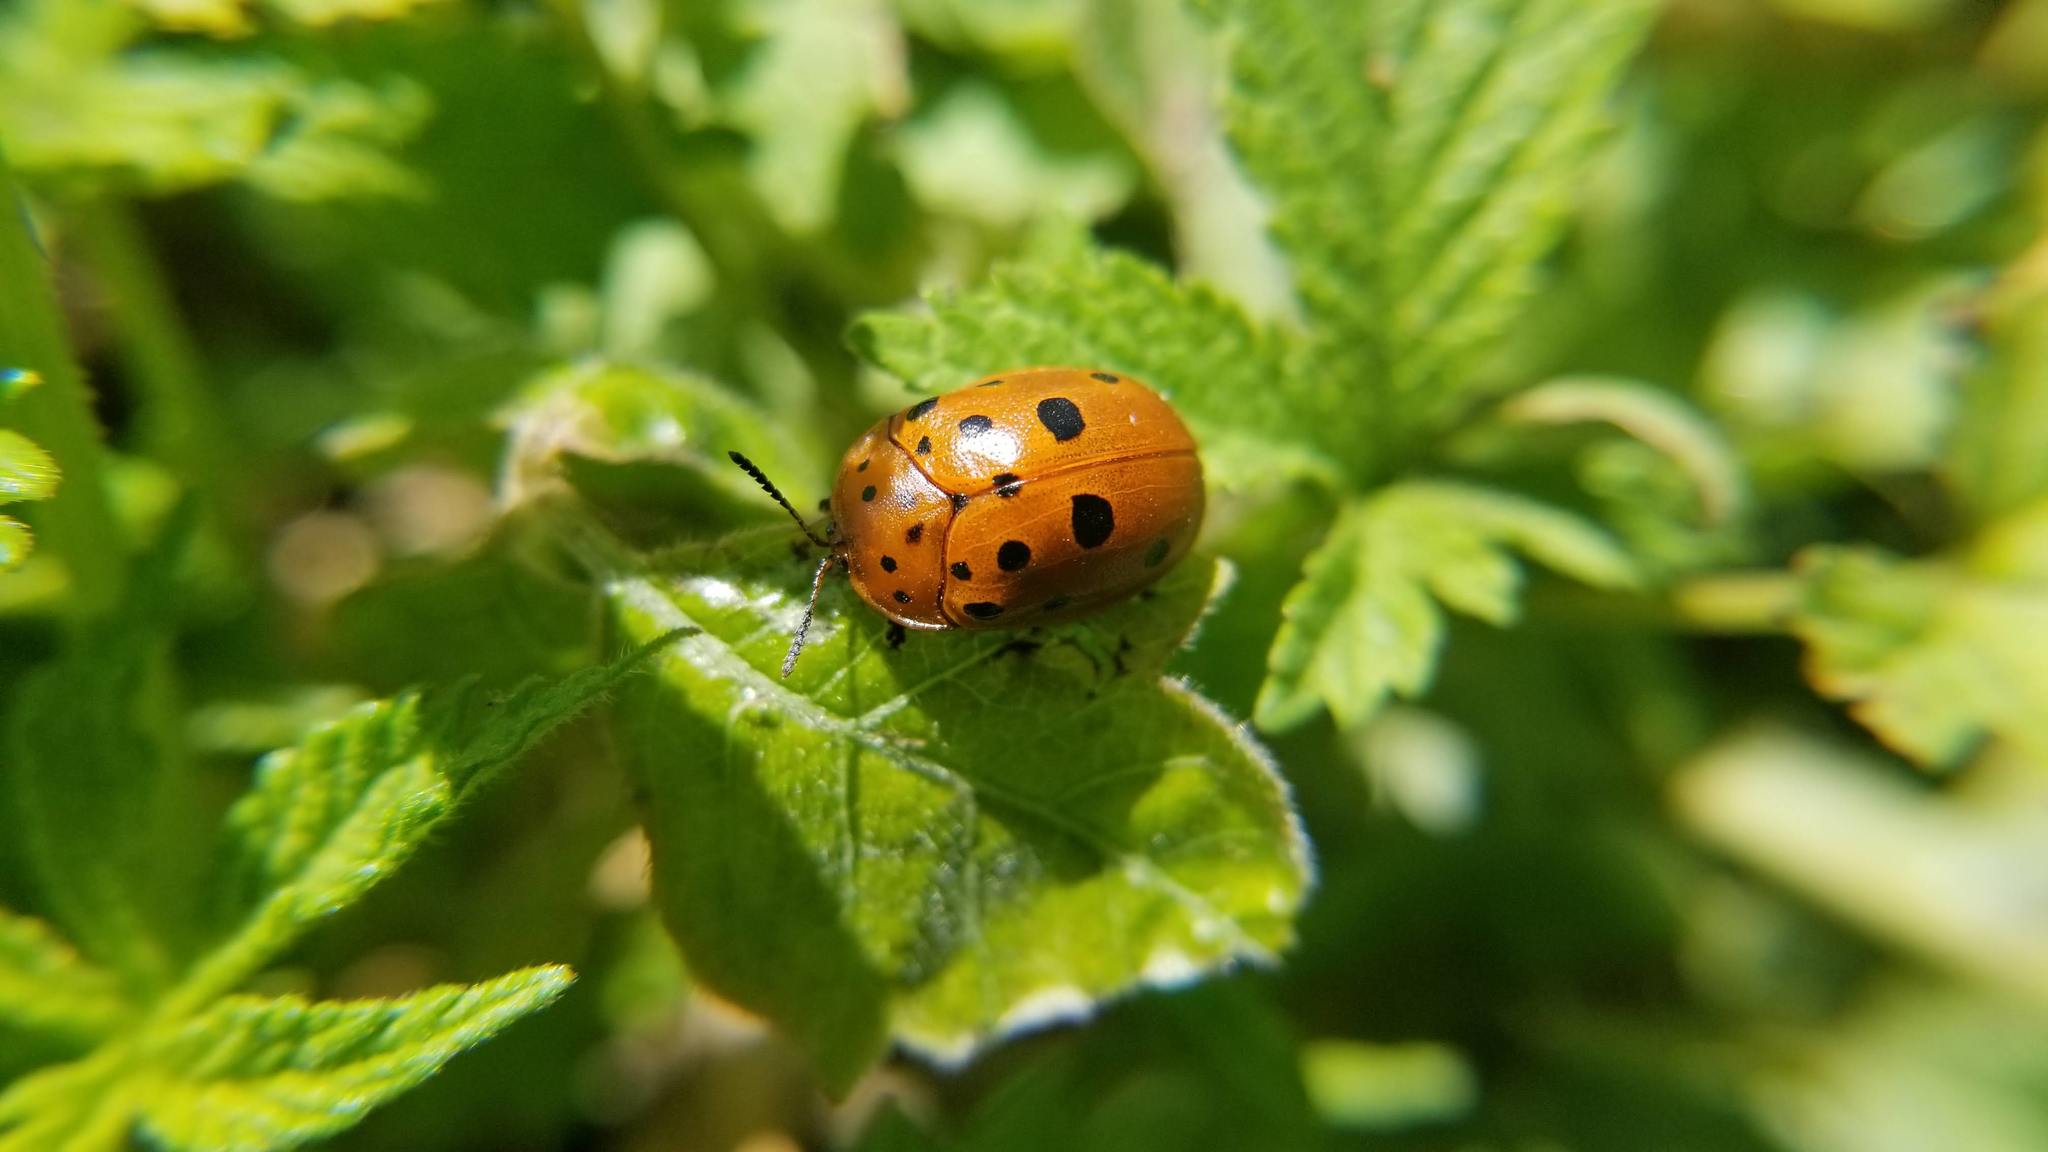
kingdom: Animalia
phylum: Arthropoda
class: Insecta
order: Coleoptera
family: Chrysomelidae
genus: Chelymorpha
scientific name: Chelymorpha cassidea
